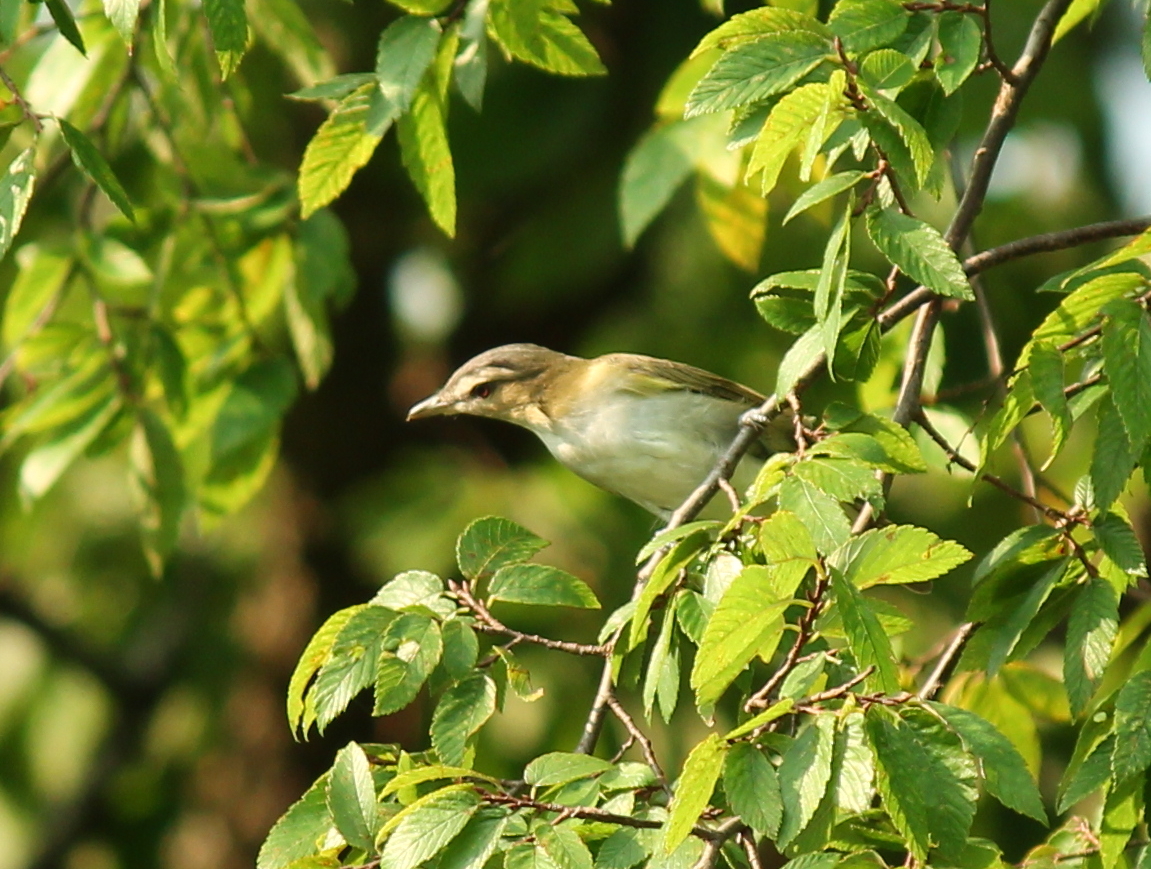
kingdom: Animalia
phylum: Chordata
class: Aves
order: Passeriformes
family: Vireonidae
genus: Vireo
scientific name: Vireo olivaceus
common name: Red-eyed vireo
